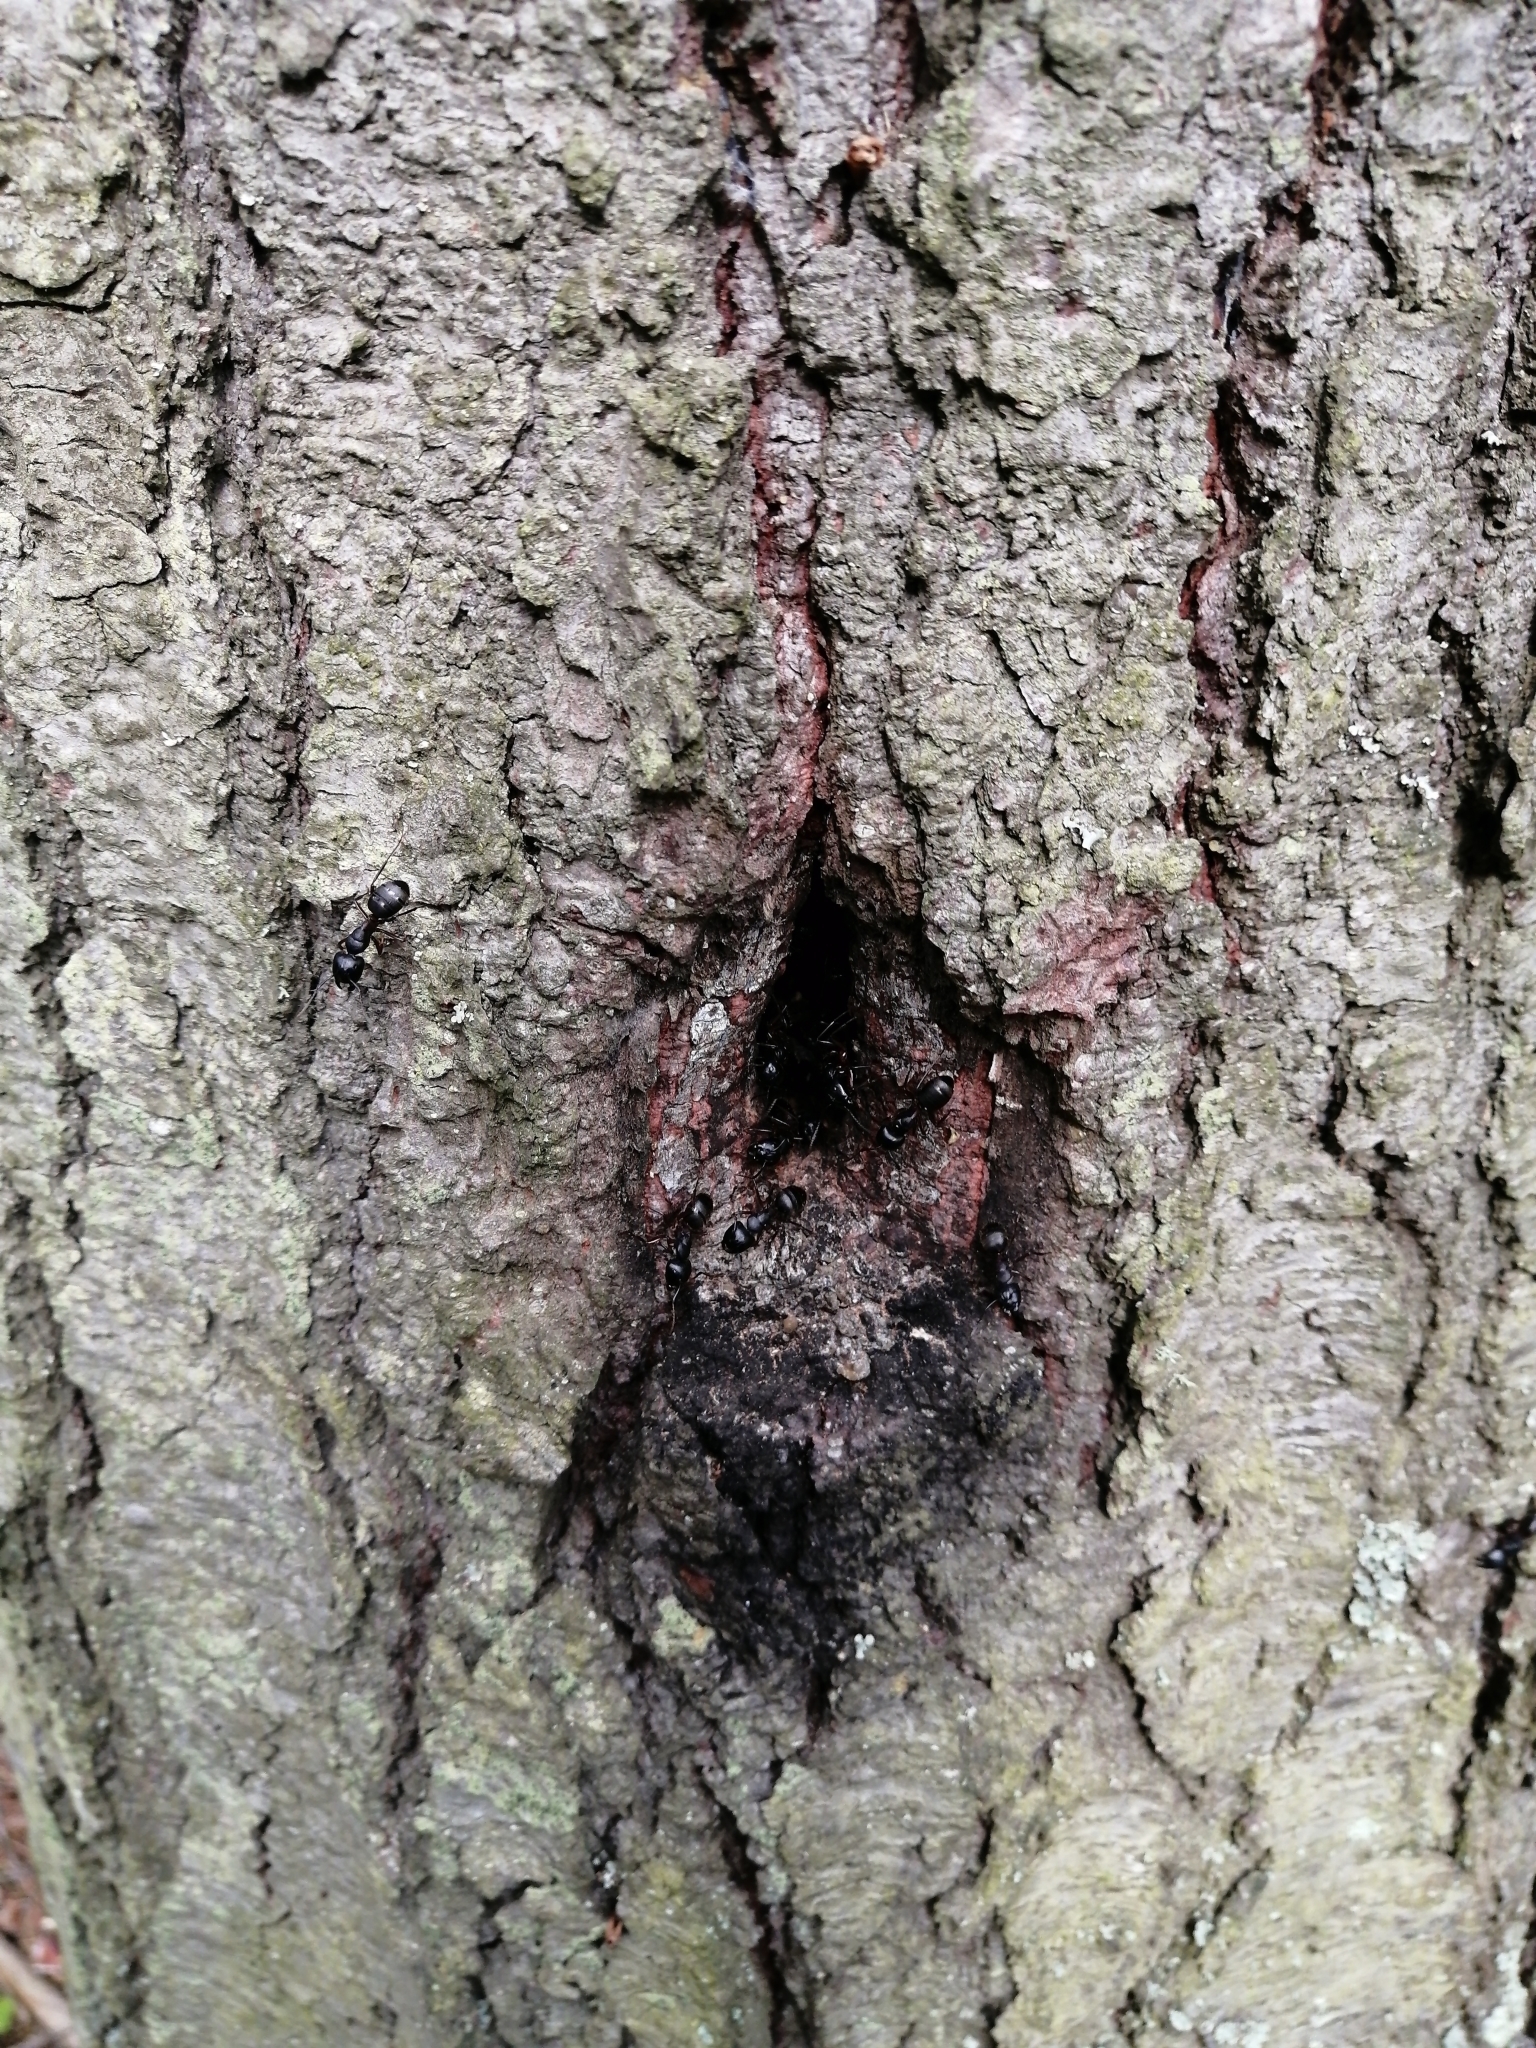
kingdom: Animalia
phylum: Arthropoda
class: Insecta
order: Hymenoptera
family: Formicidae
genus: Camponotus
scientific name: Camponotus herculeanus
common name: Hercules ant
